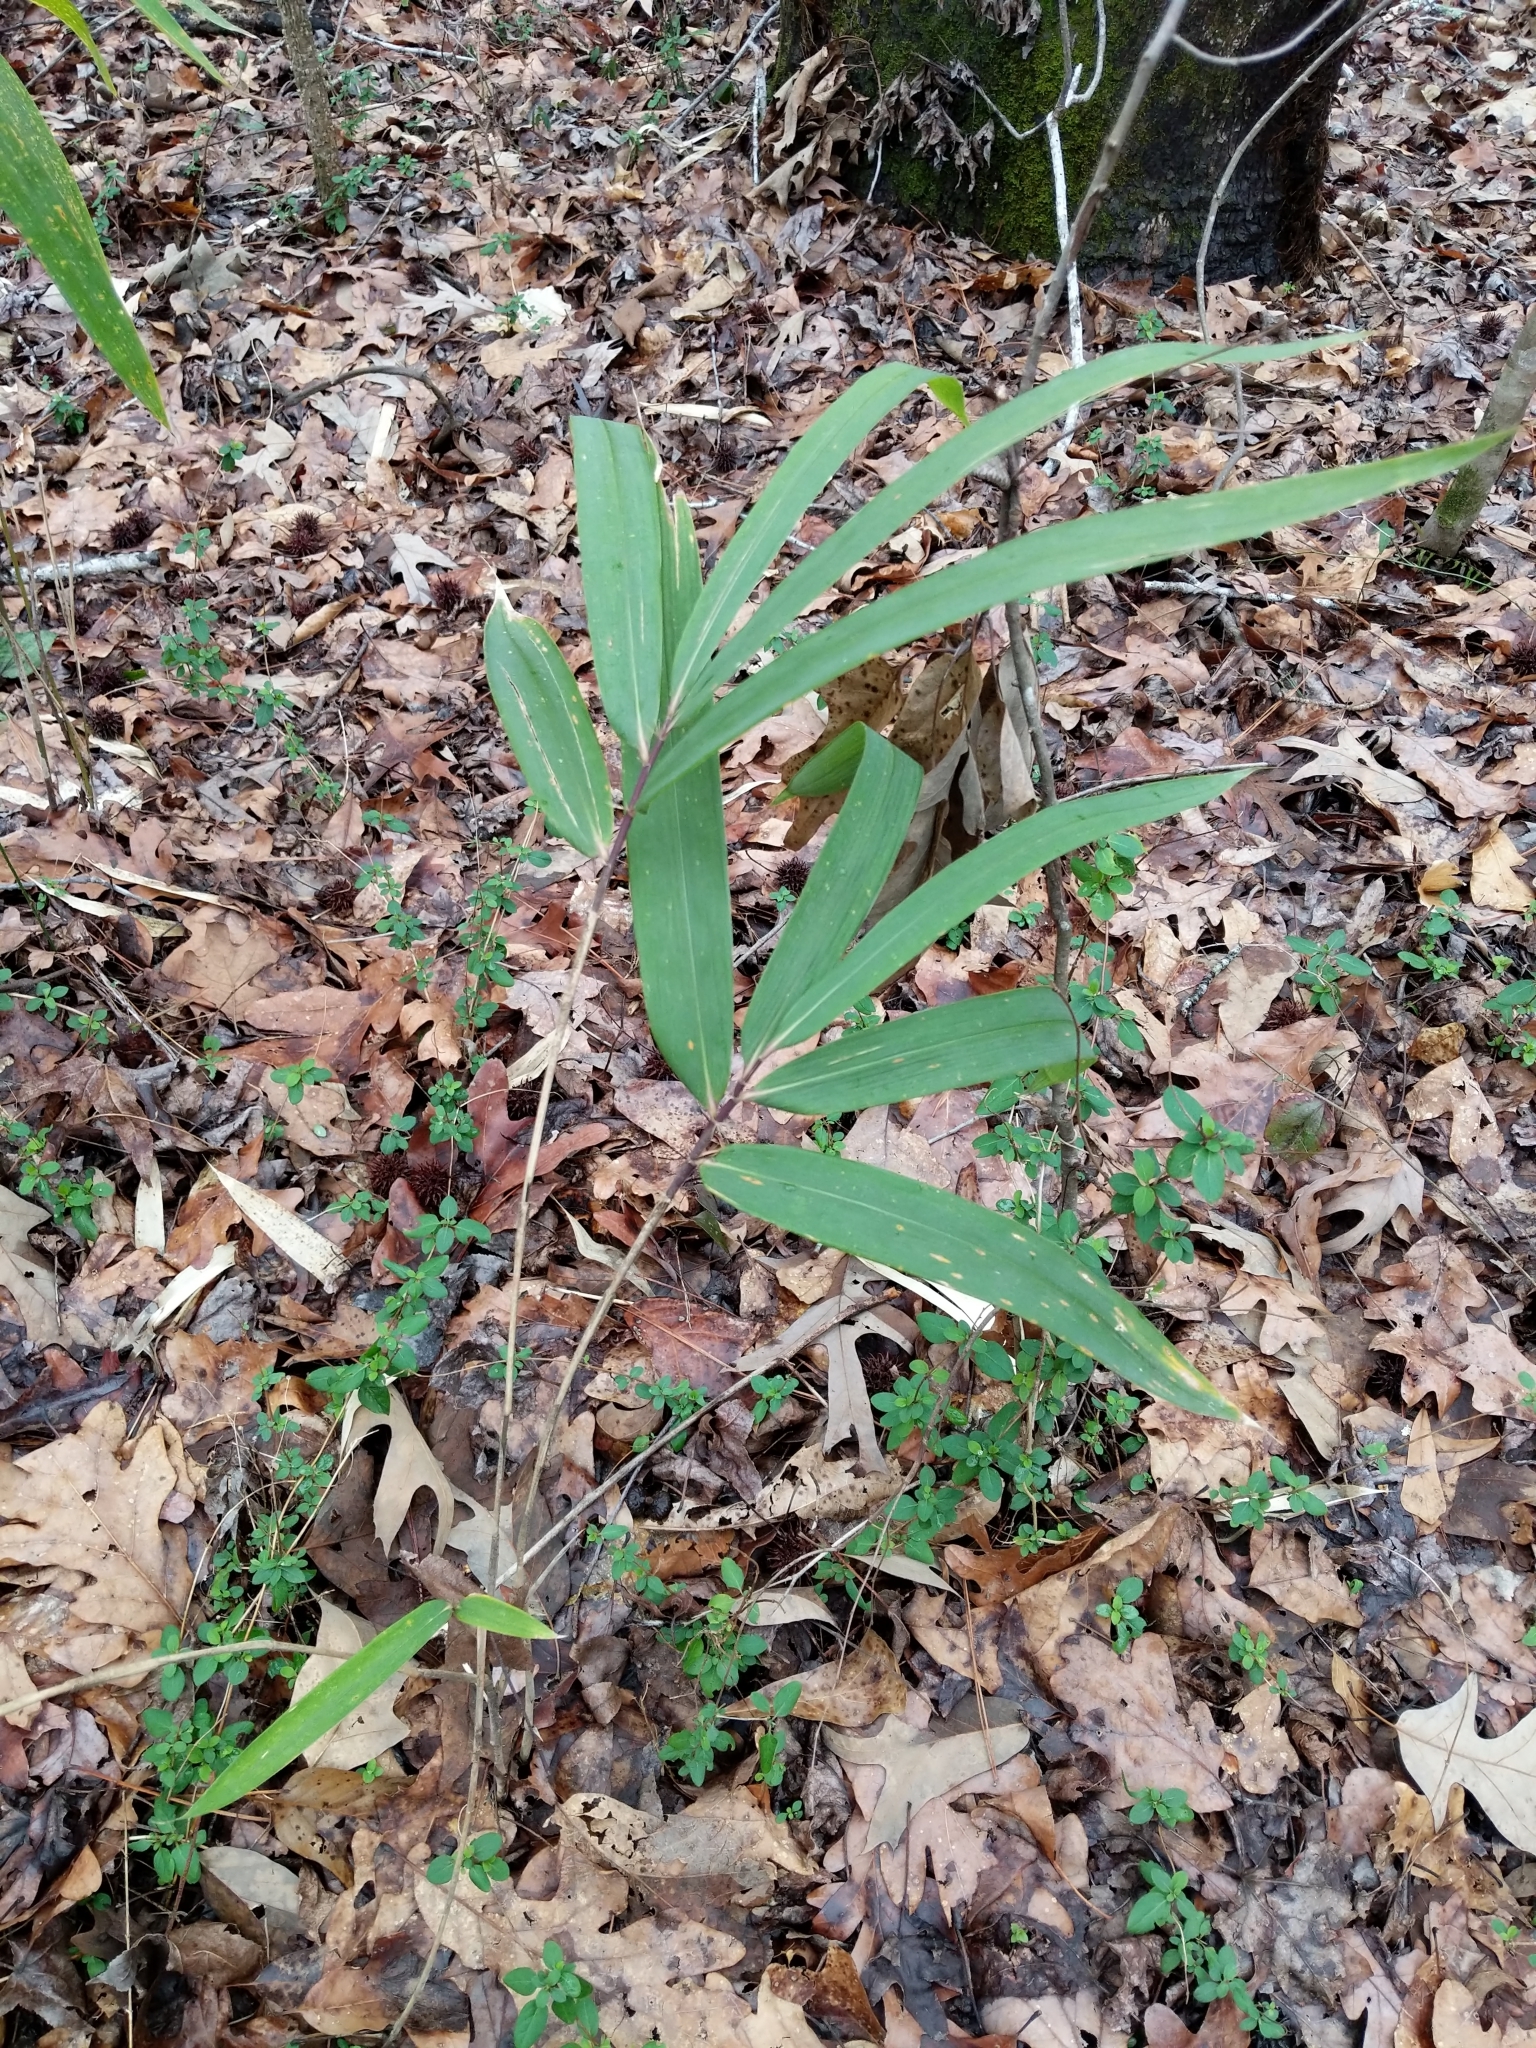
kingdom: Plantae
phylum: Tracheophyta
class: Liliopsida
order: Poales
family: Poaceae
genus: Arundinaria
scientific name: Arundinaria gigantea
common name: Giant cane
